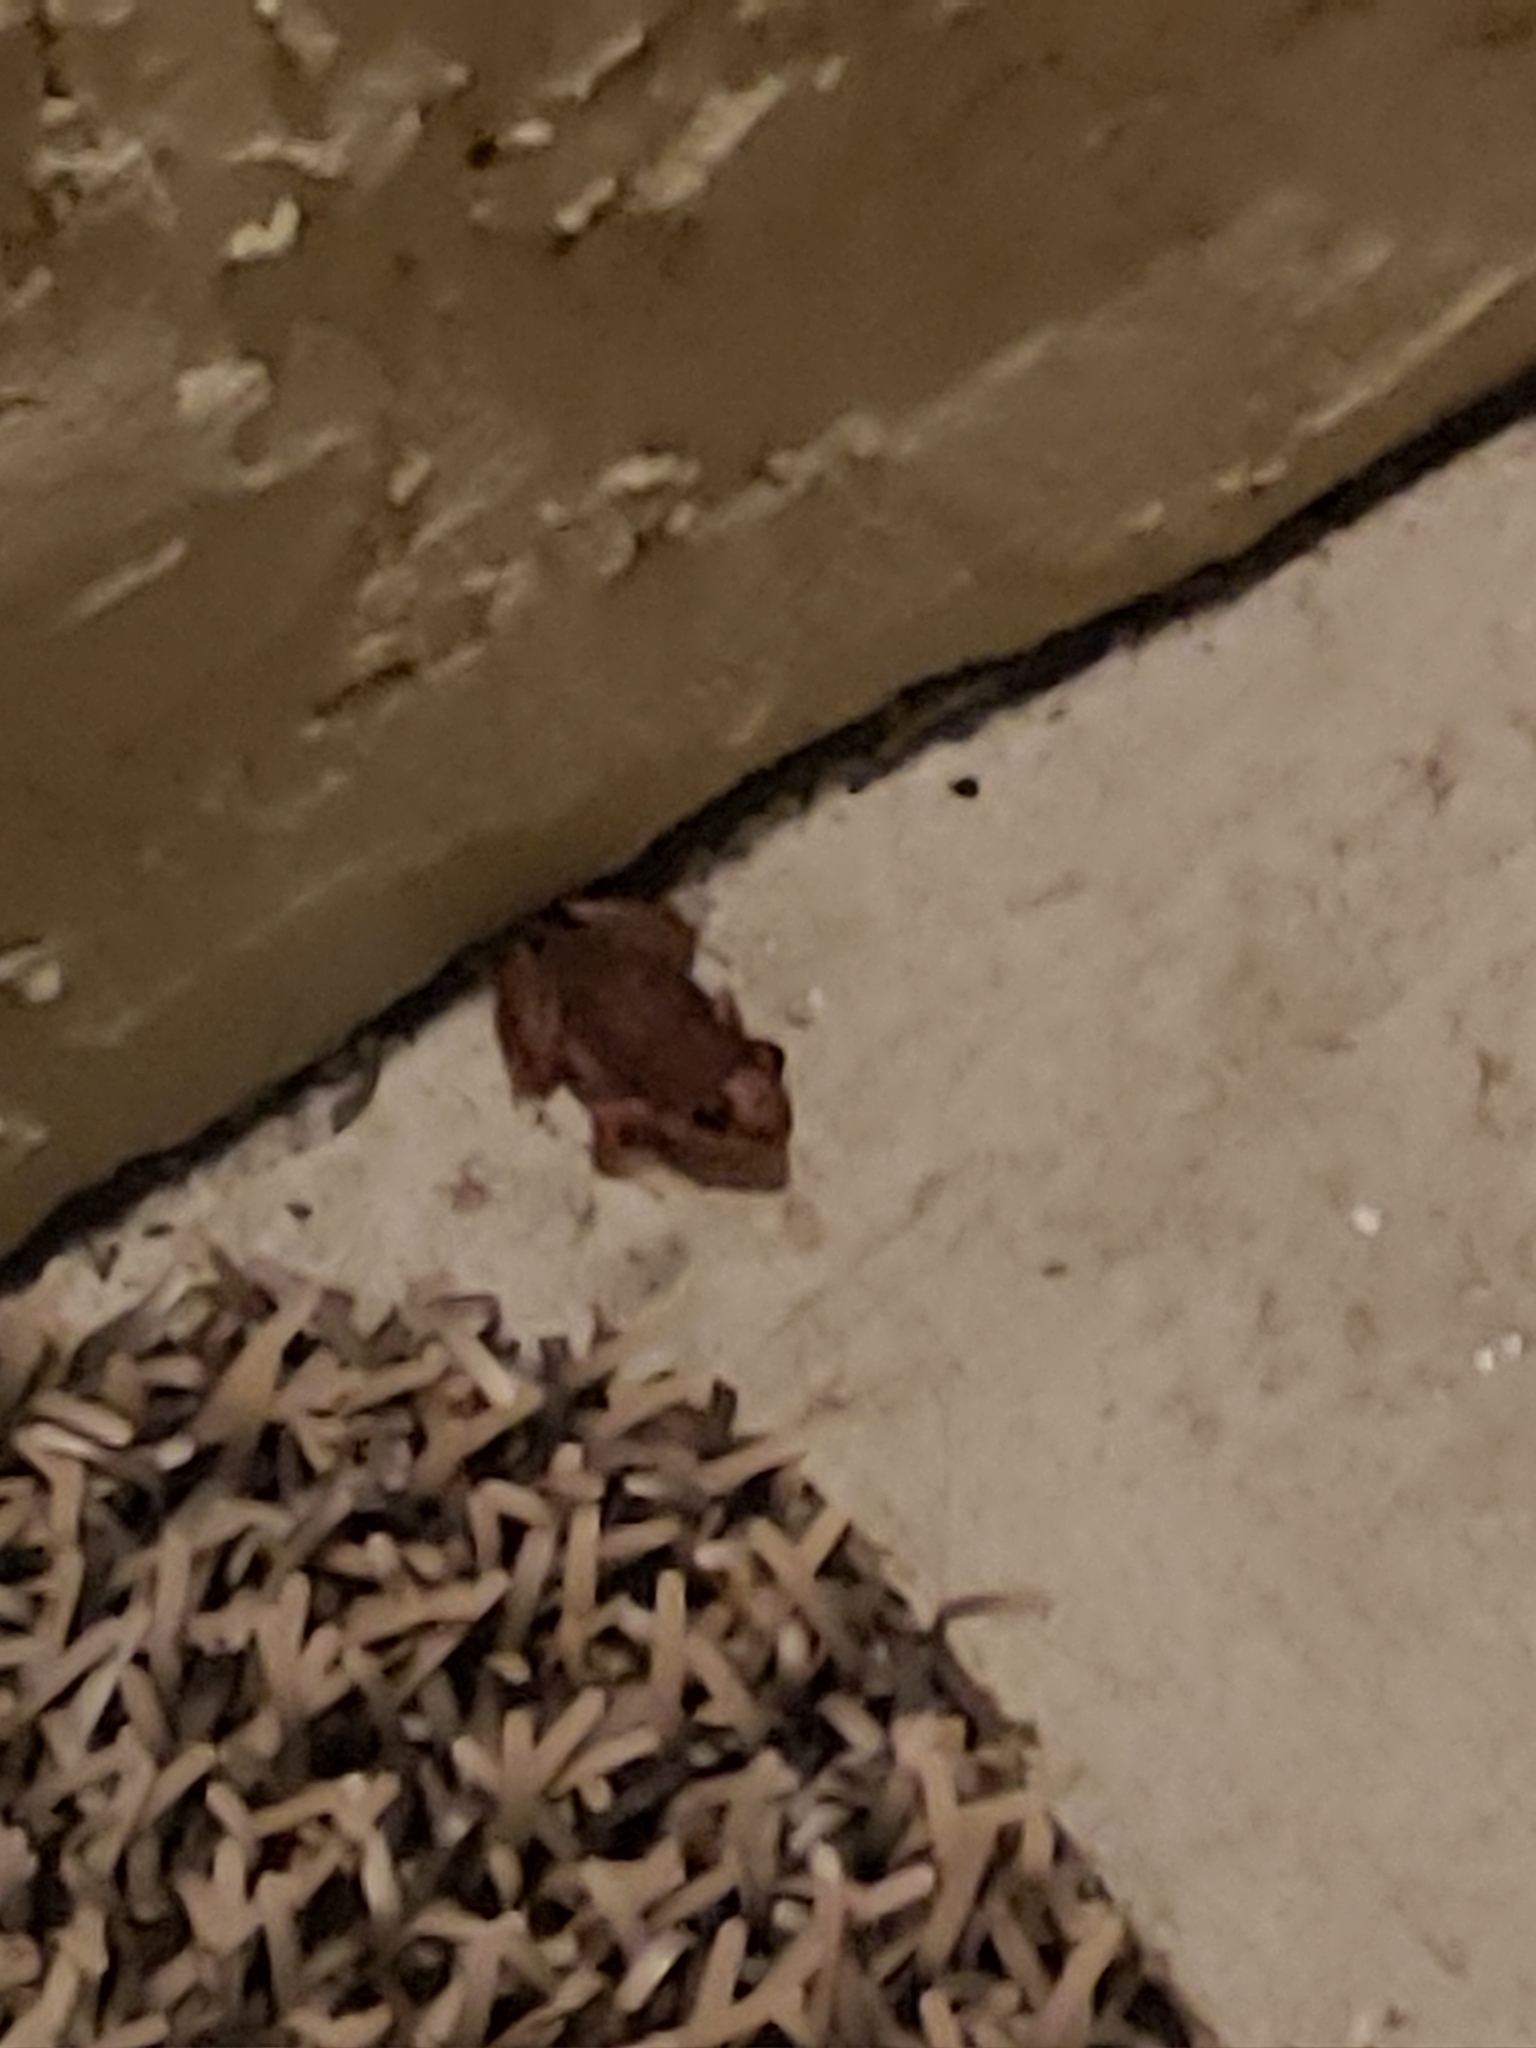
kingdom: Animalia
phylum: Chordata
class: Amphibia
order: Anura
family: Eleutherodactylidae
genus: Eleutherodactylus
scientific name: Eleutherodactylus planirostris
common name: Greenhouse frog
